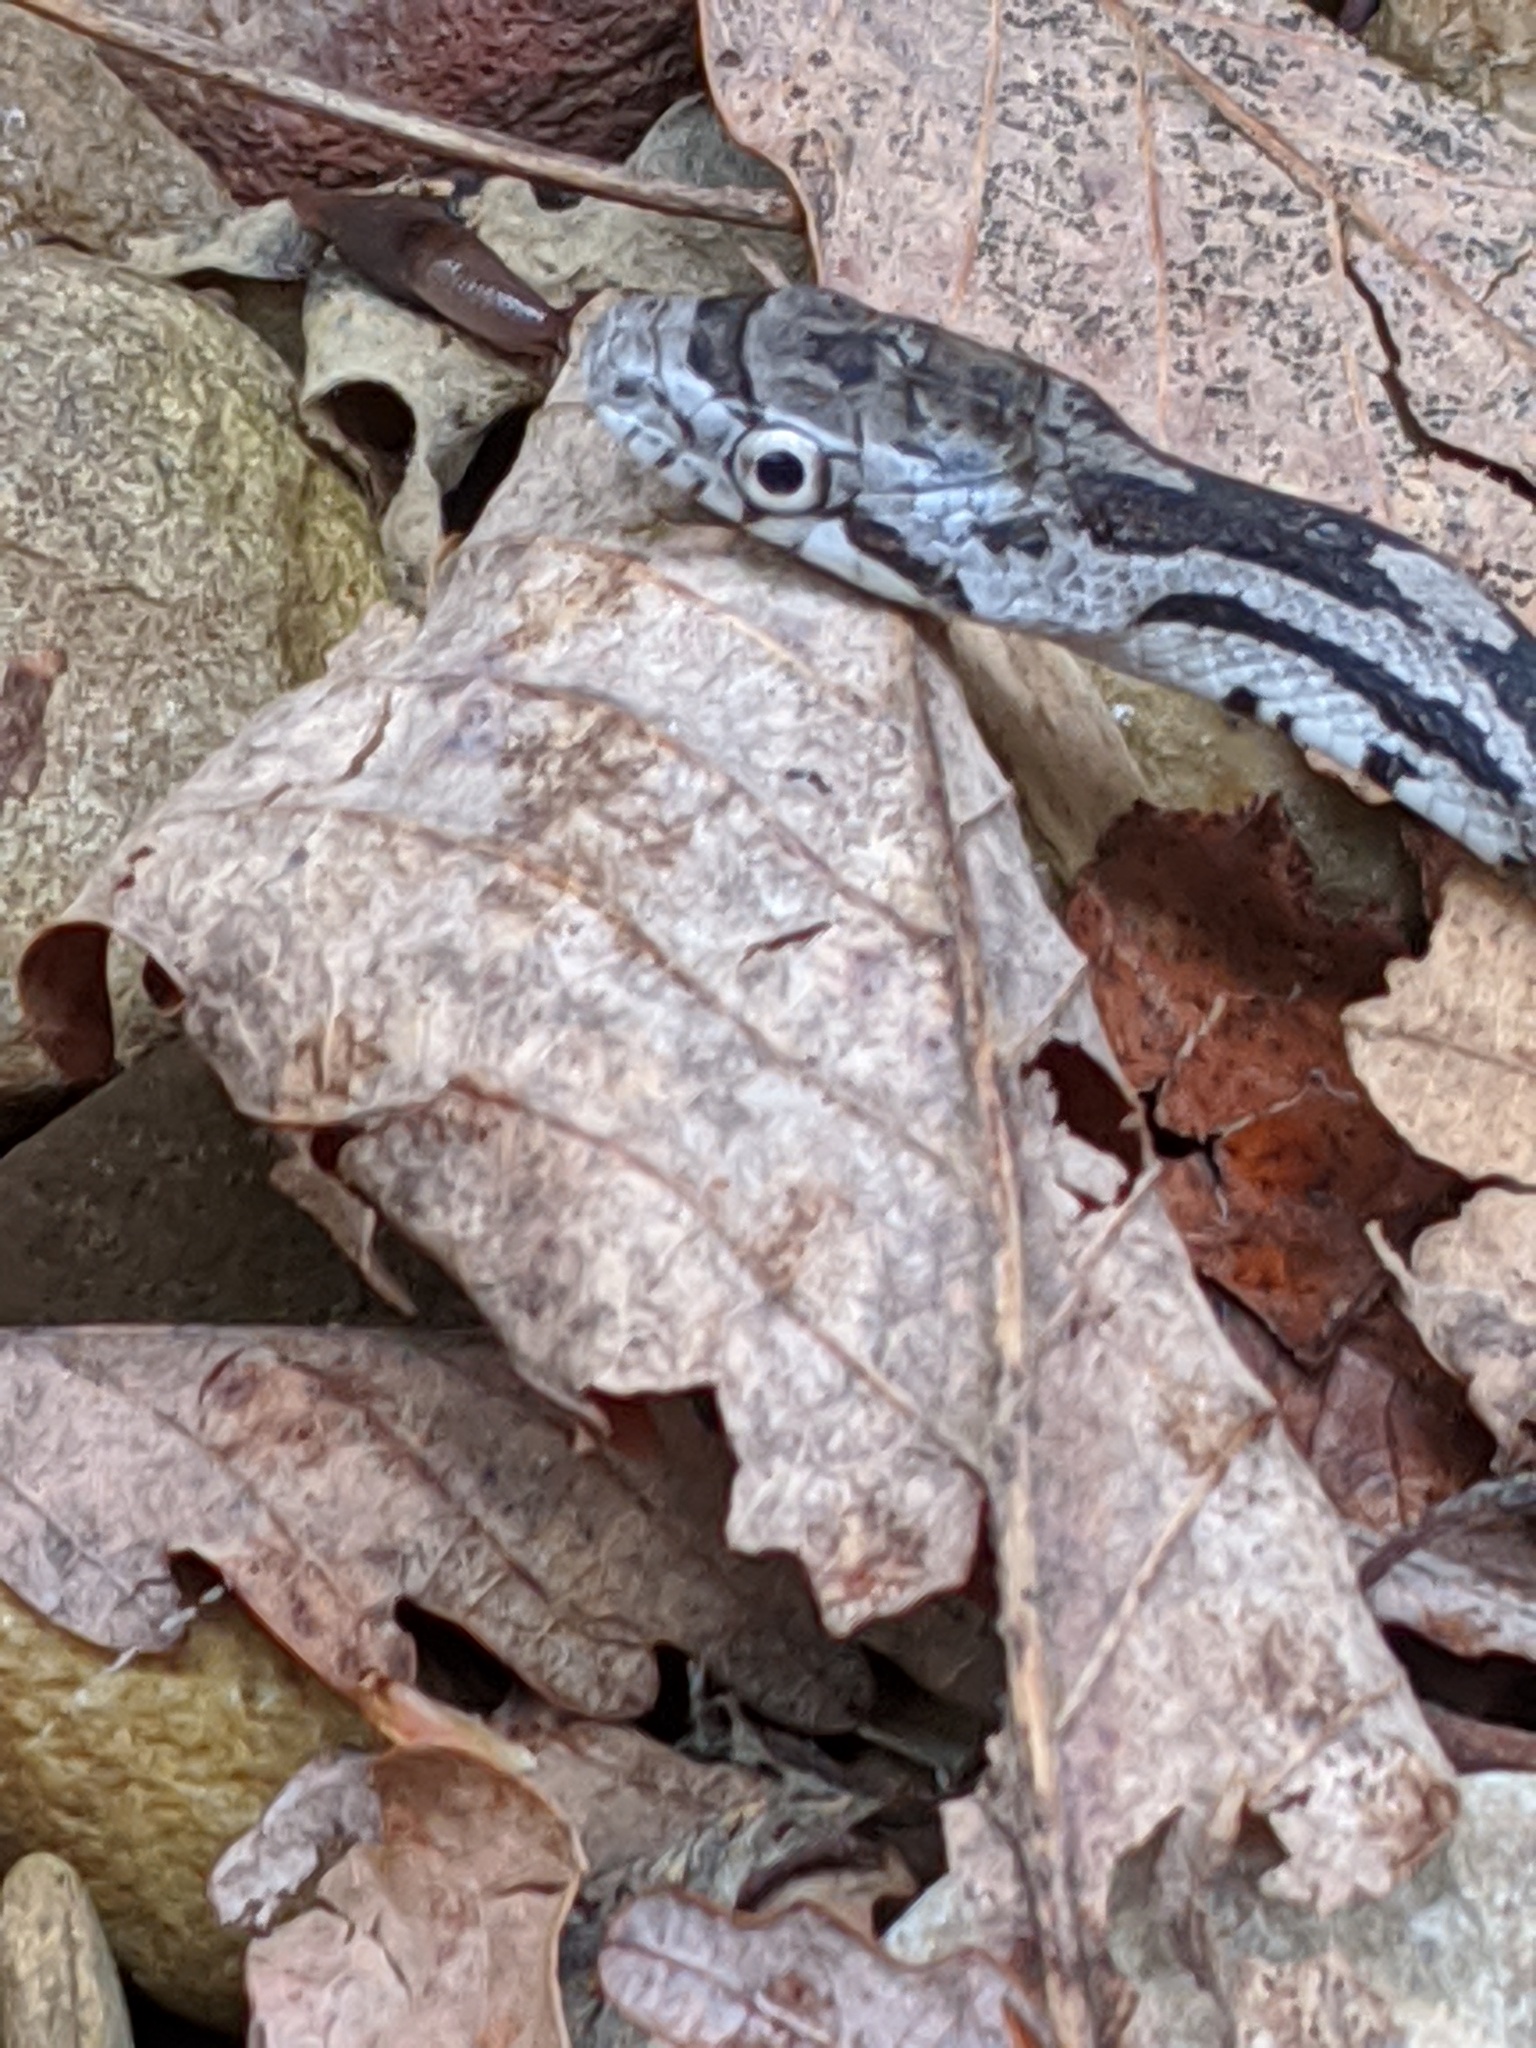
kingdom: Animalia
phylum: Chordata
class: Squamata
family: Colubridae
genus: Pantherophis
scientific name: Pantherophis alleghaniensis
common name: Eastern rat snake
